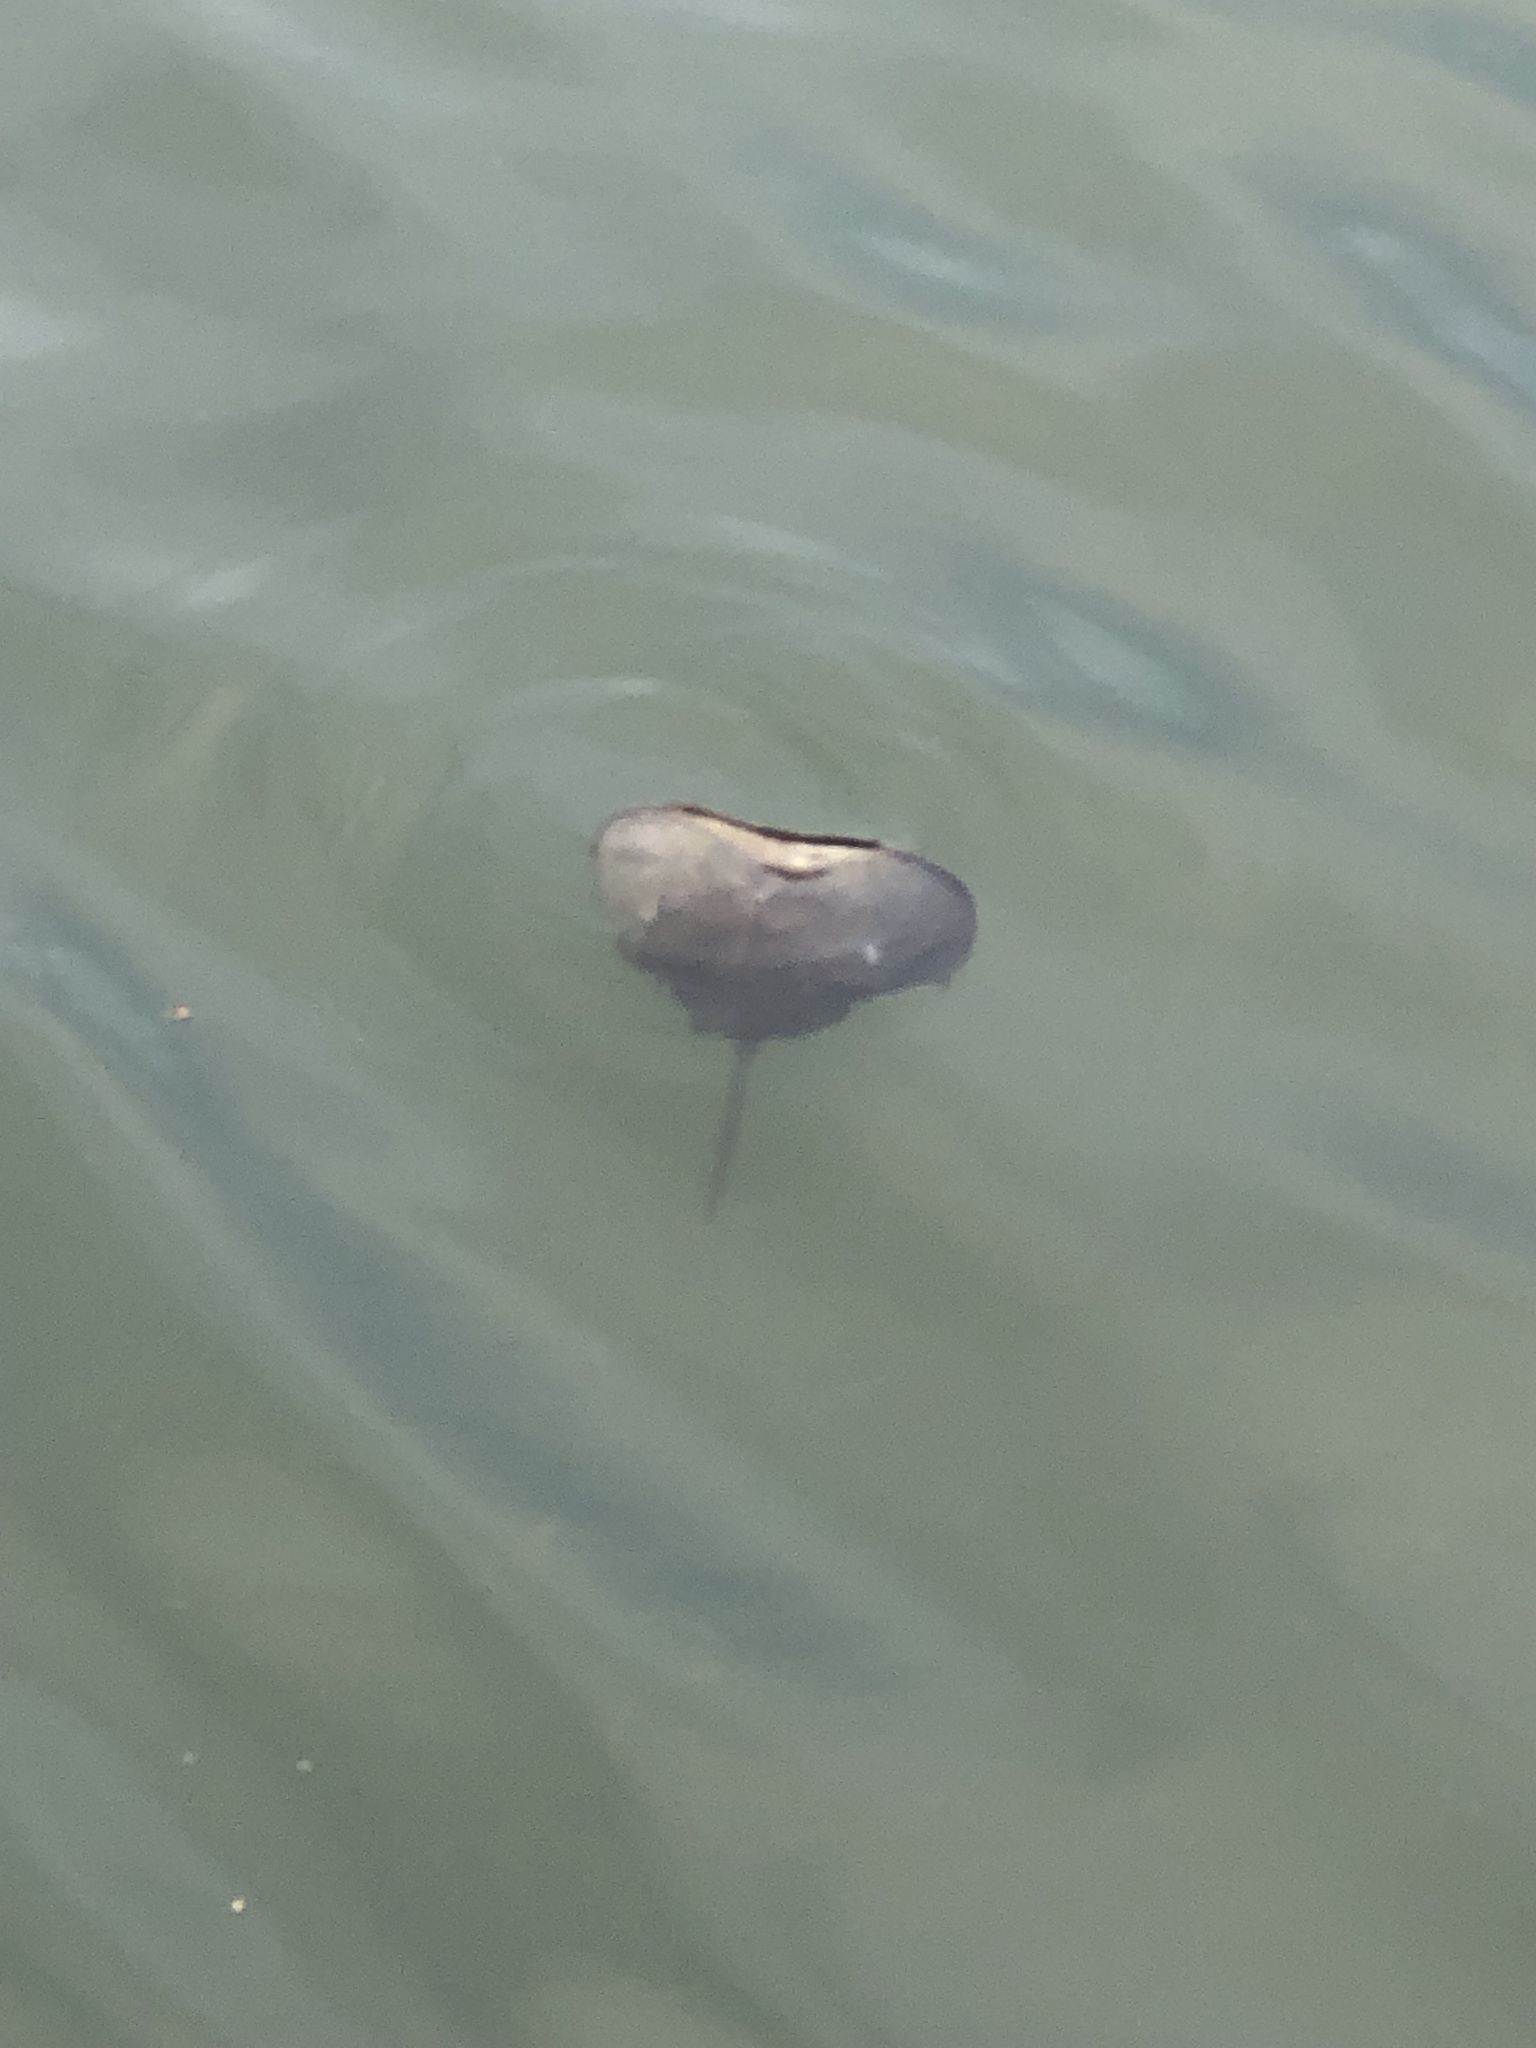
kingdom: Animalia
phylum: Arthropoda
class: Merostomata
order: Xiphosurida
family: Limulidae
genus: Limulus
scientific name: Limulus polyphemus
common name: Horseshoe crab
